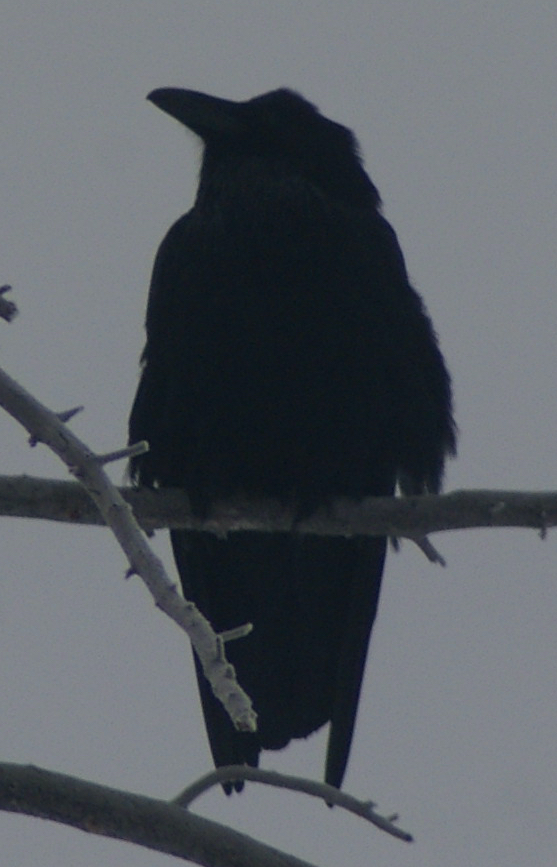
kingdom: Animalia
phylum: Chordata
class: Aves
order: Passeriformes
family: Corvidae
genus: Corvus
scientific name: Corvus corax
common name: Common raven
